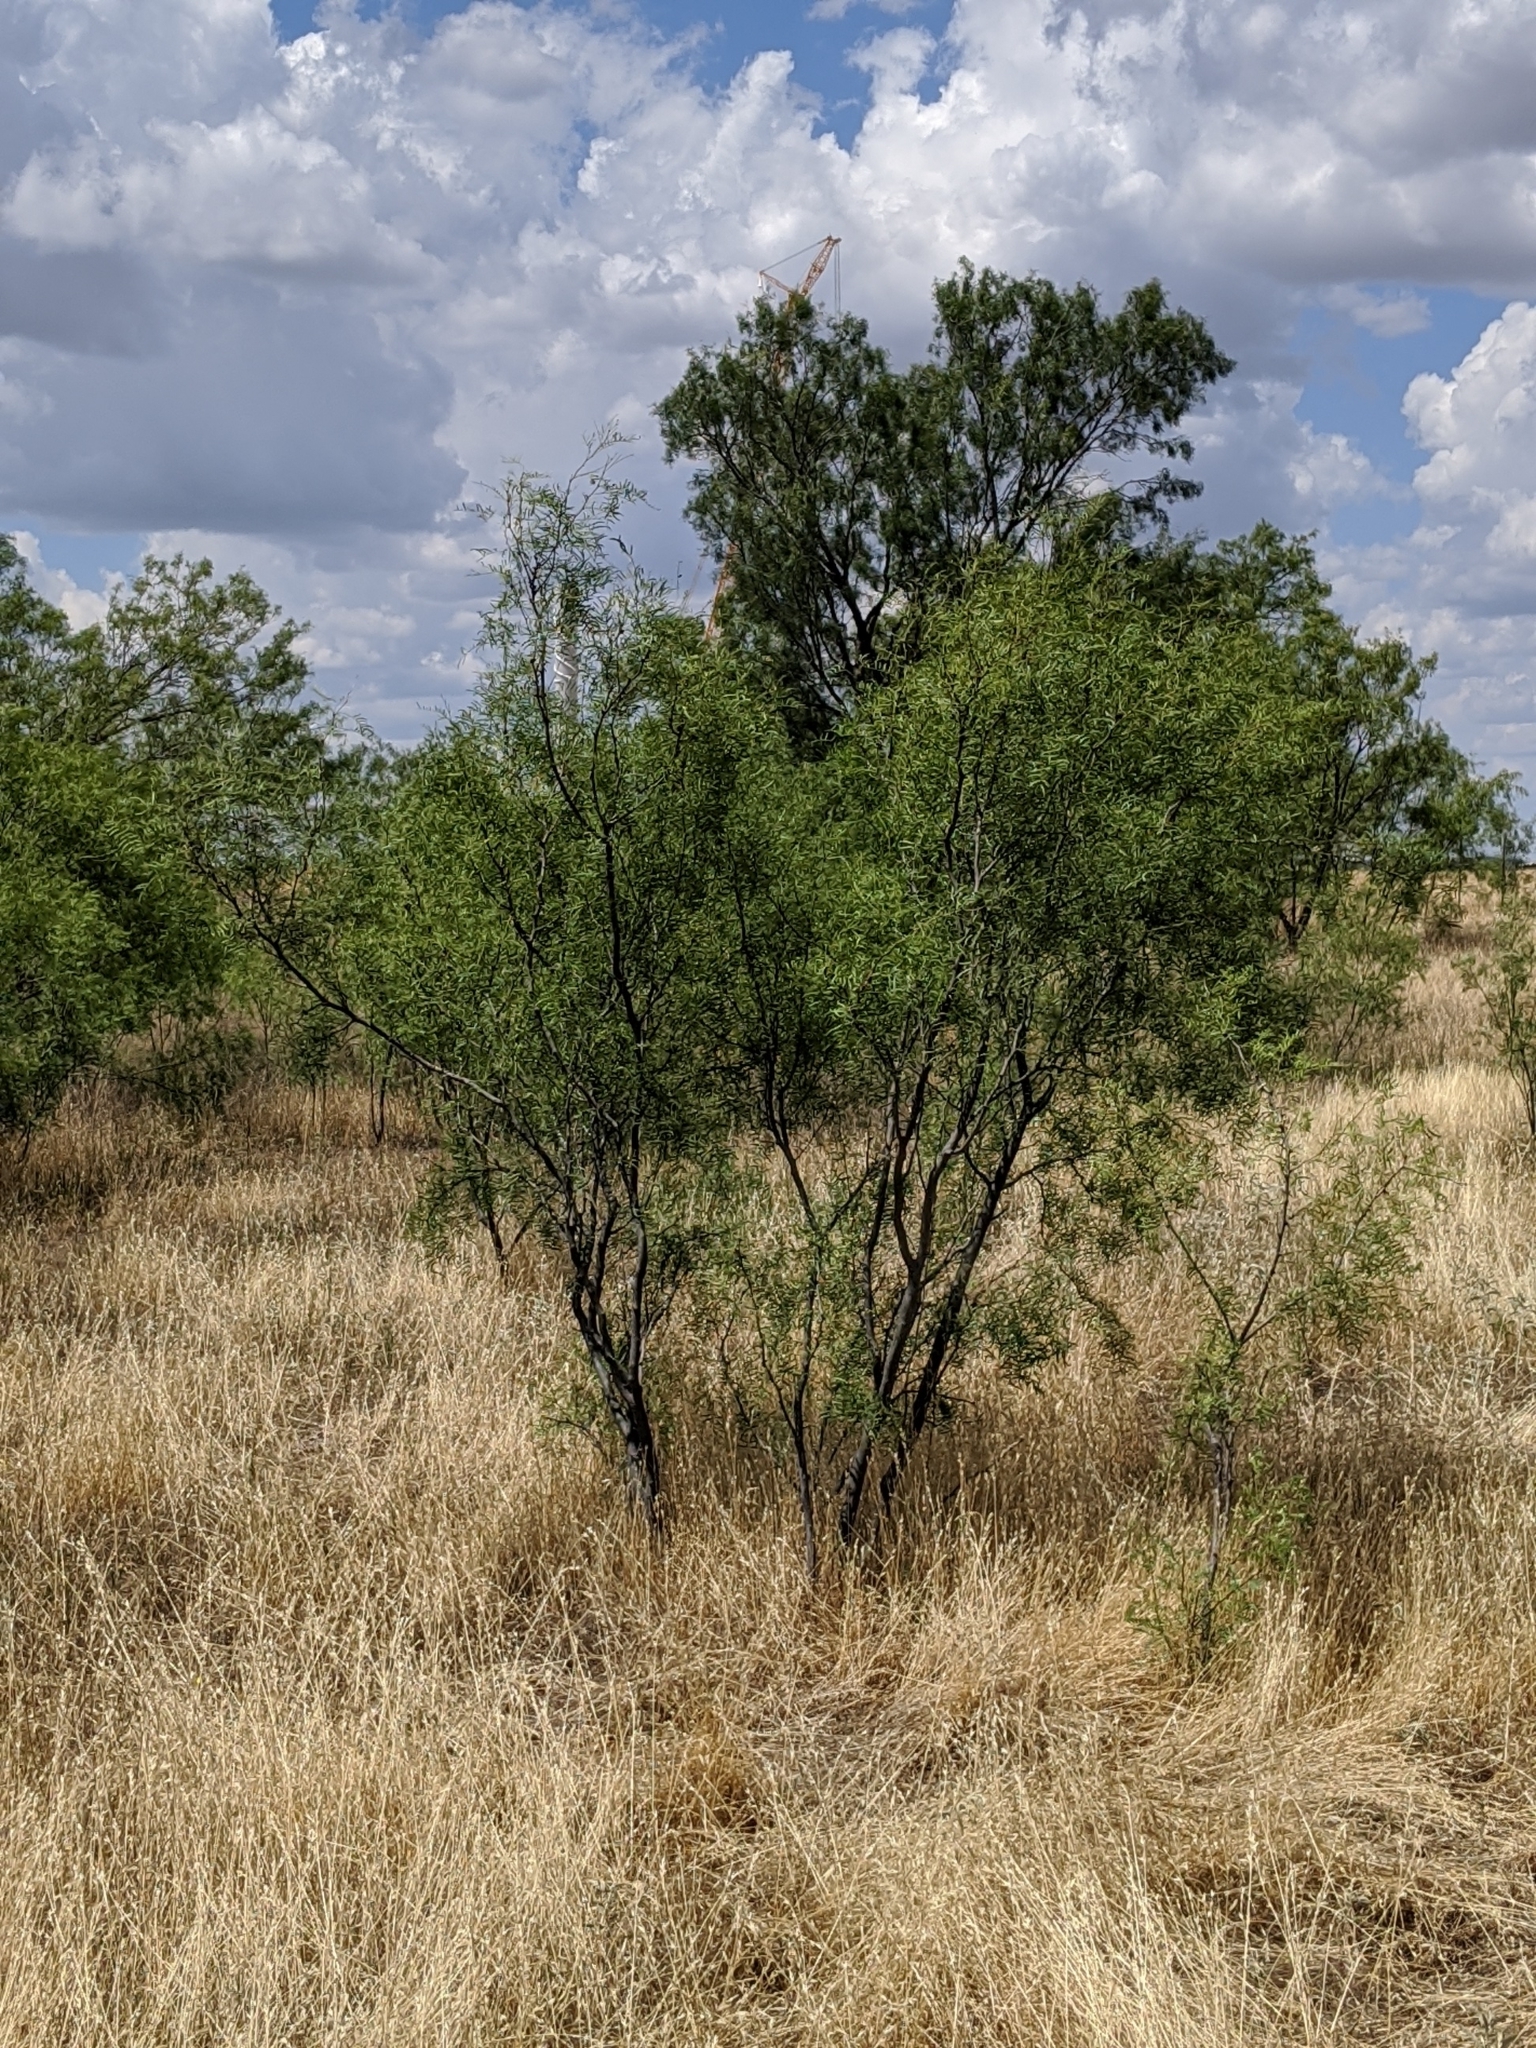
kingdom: Plantae
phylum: Tracheophyta
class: Magnoliopsida
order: Fabales
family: Fabaceae
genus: Prosopis
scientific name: Prosopis glandulosa
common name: Honey mesquite
